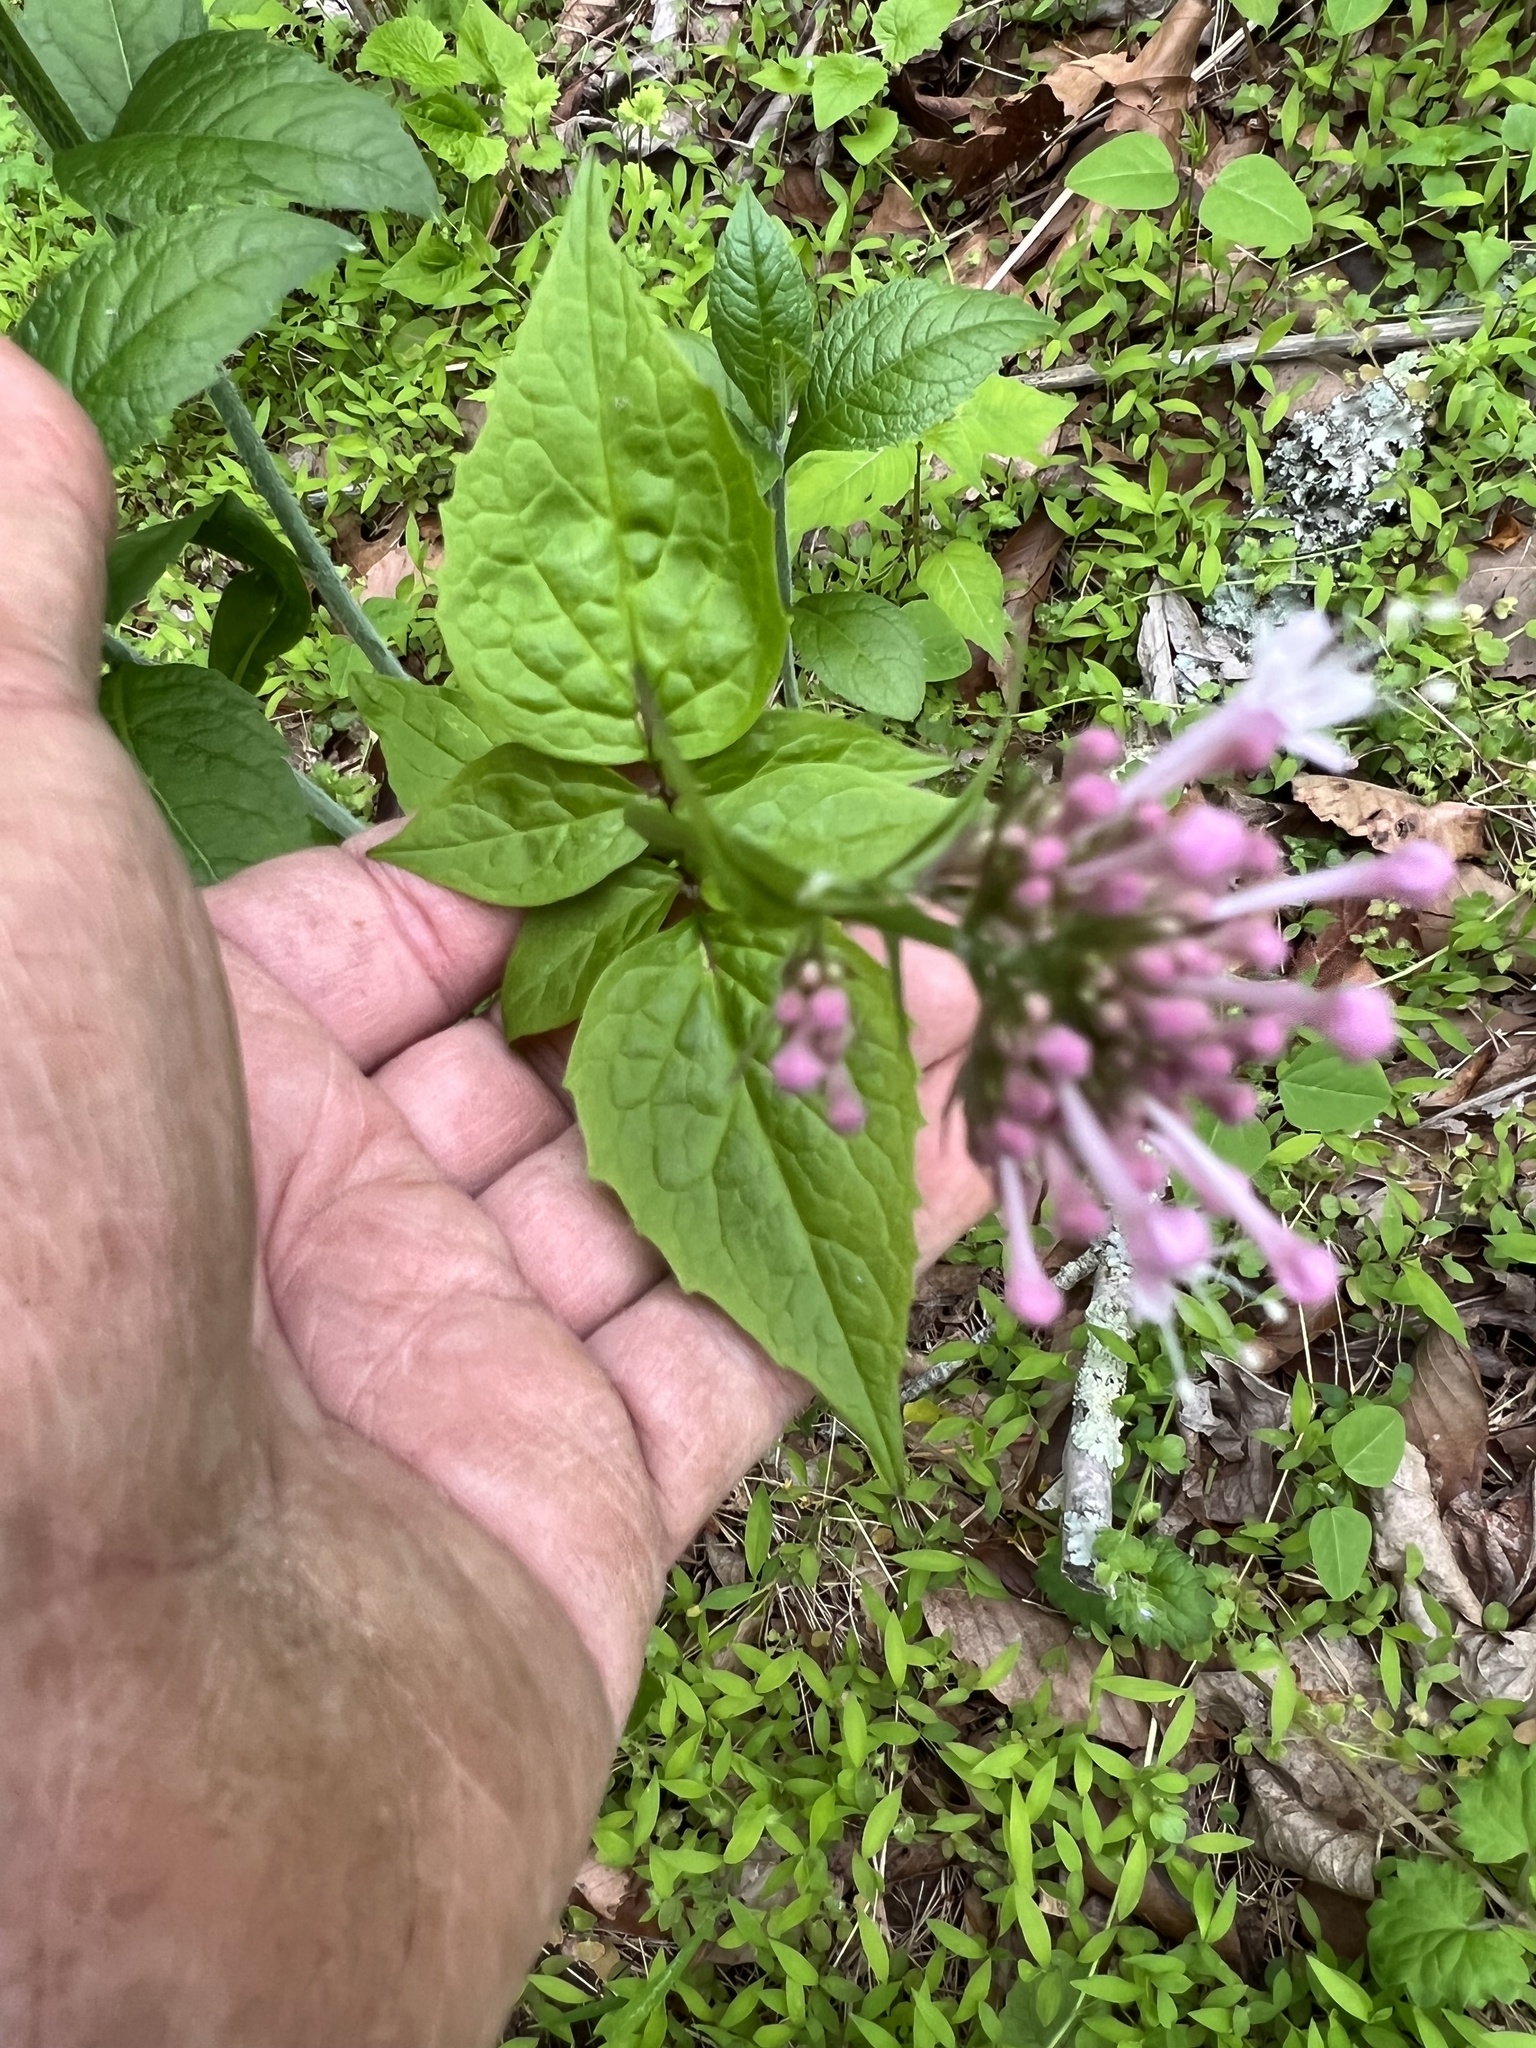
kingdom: Plantae
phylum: Tracheophyta
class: Magnoliopsida
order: Dipsacales
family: Caprifoliaceae
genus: Valeriana
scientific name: Valeriana pauciflora
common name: Long-tube valeriana
